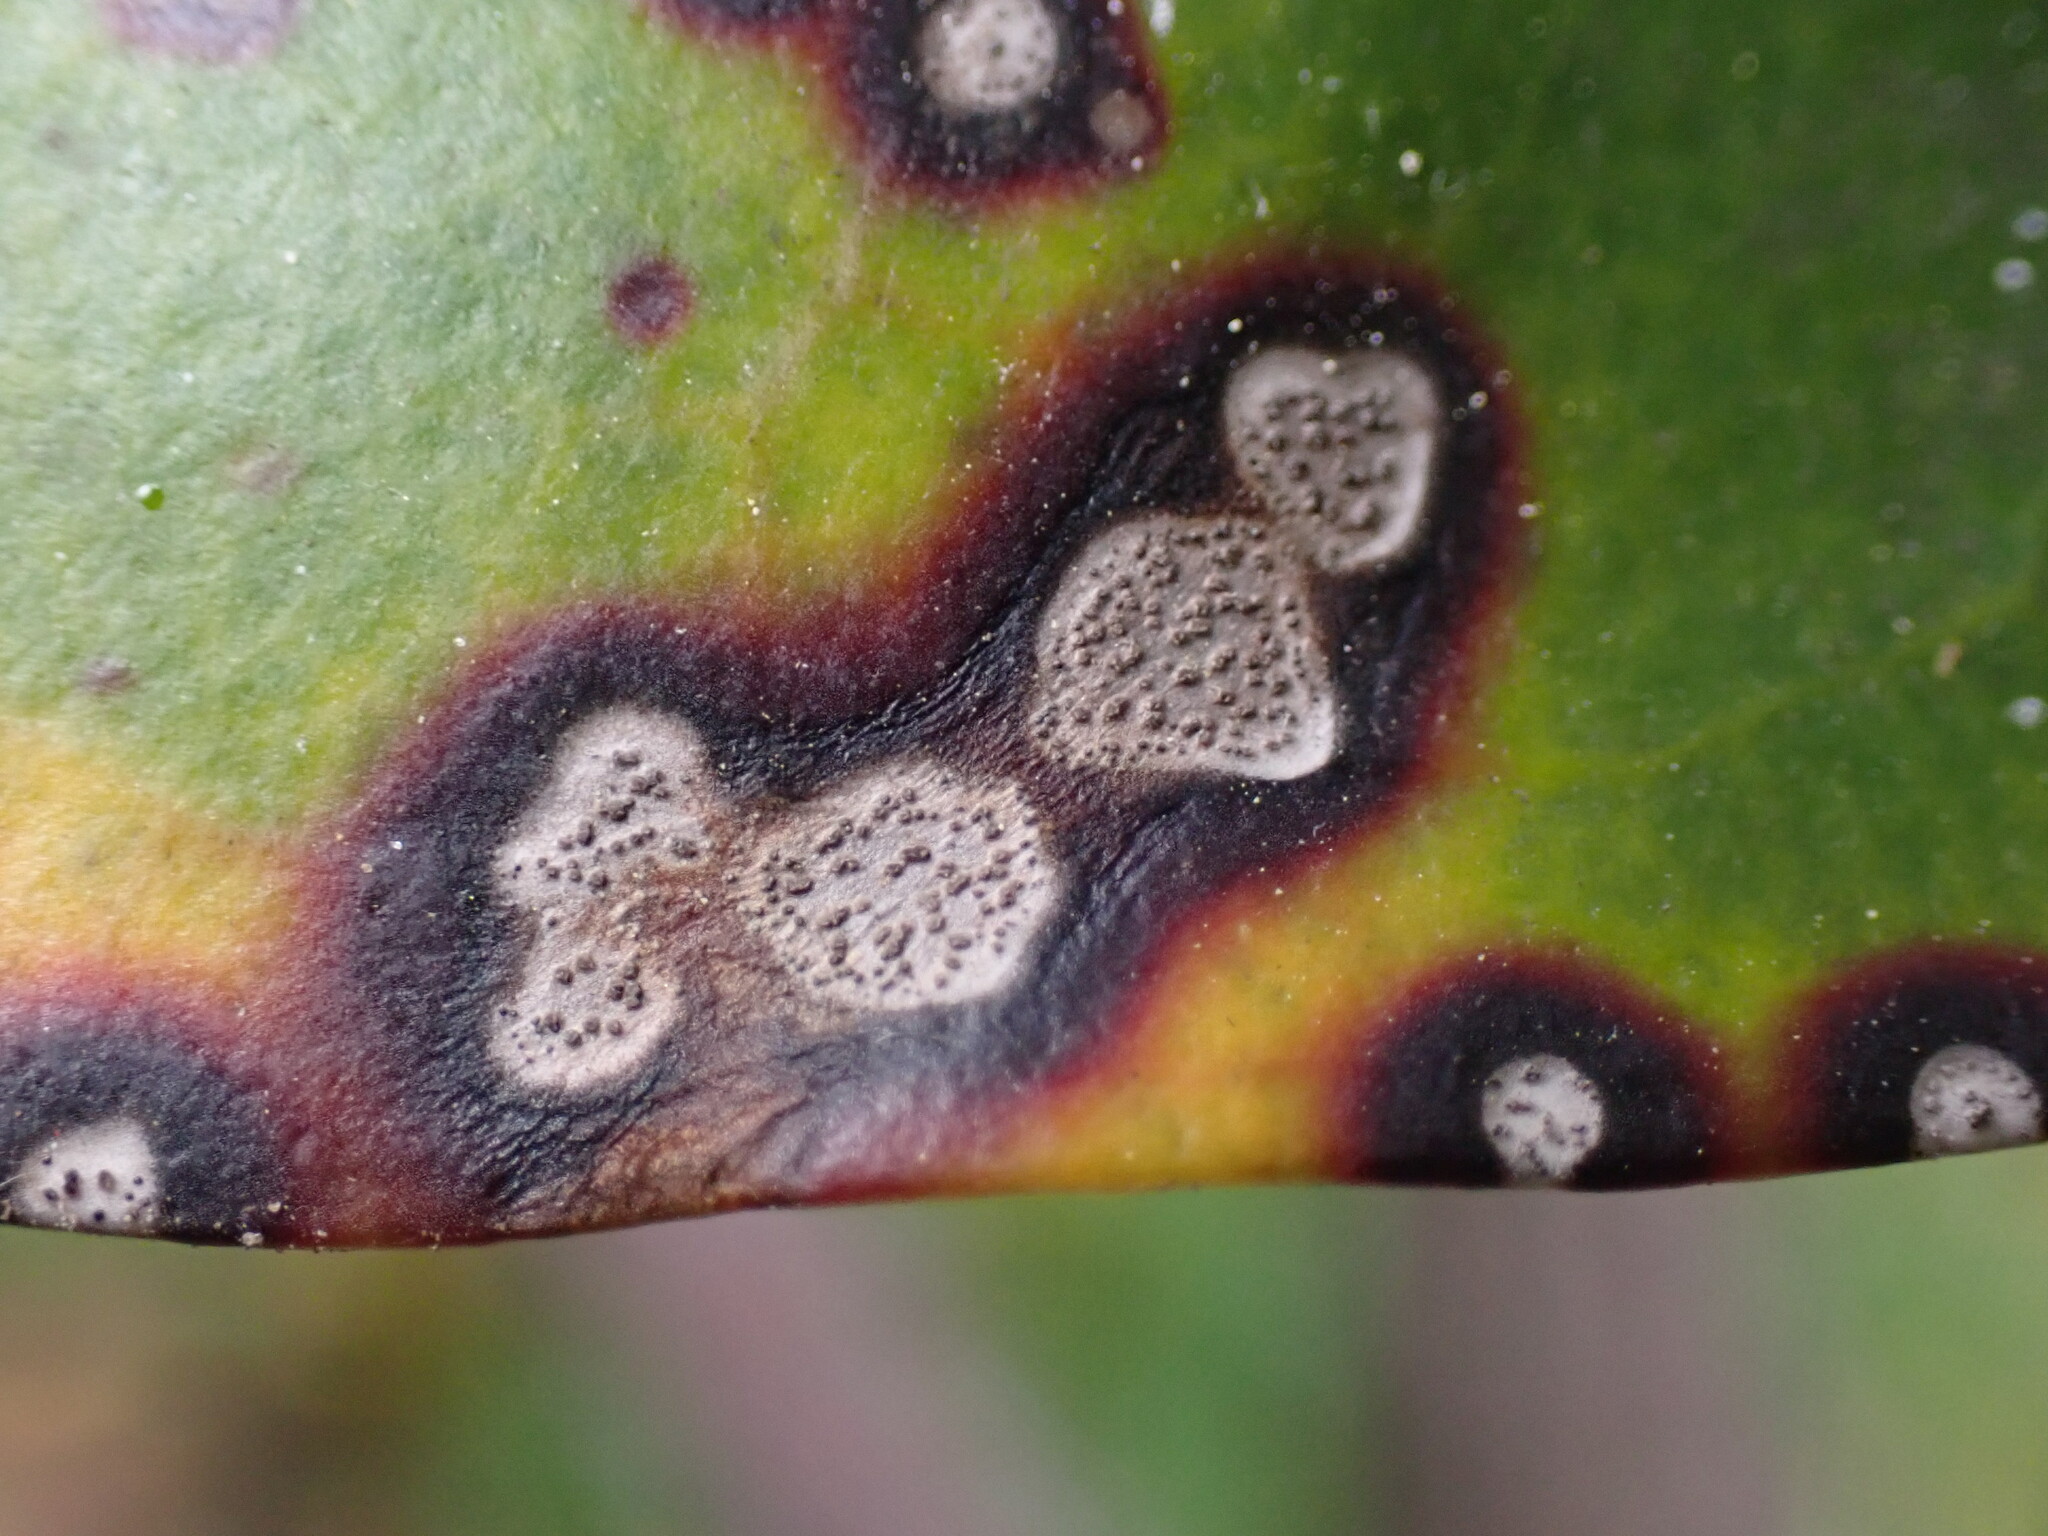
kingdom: Fungi
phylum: Ascomycota
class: Dothideomycetes
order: Mycosphaerellales
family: Mycosphaerellaceae
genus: Mycosphaerella
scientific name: Mycosphaerella colorata
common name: Mountain laurel leaf spot
